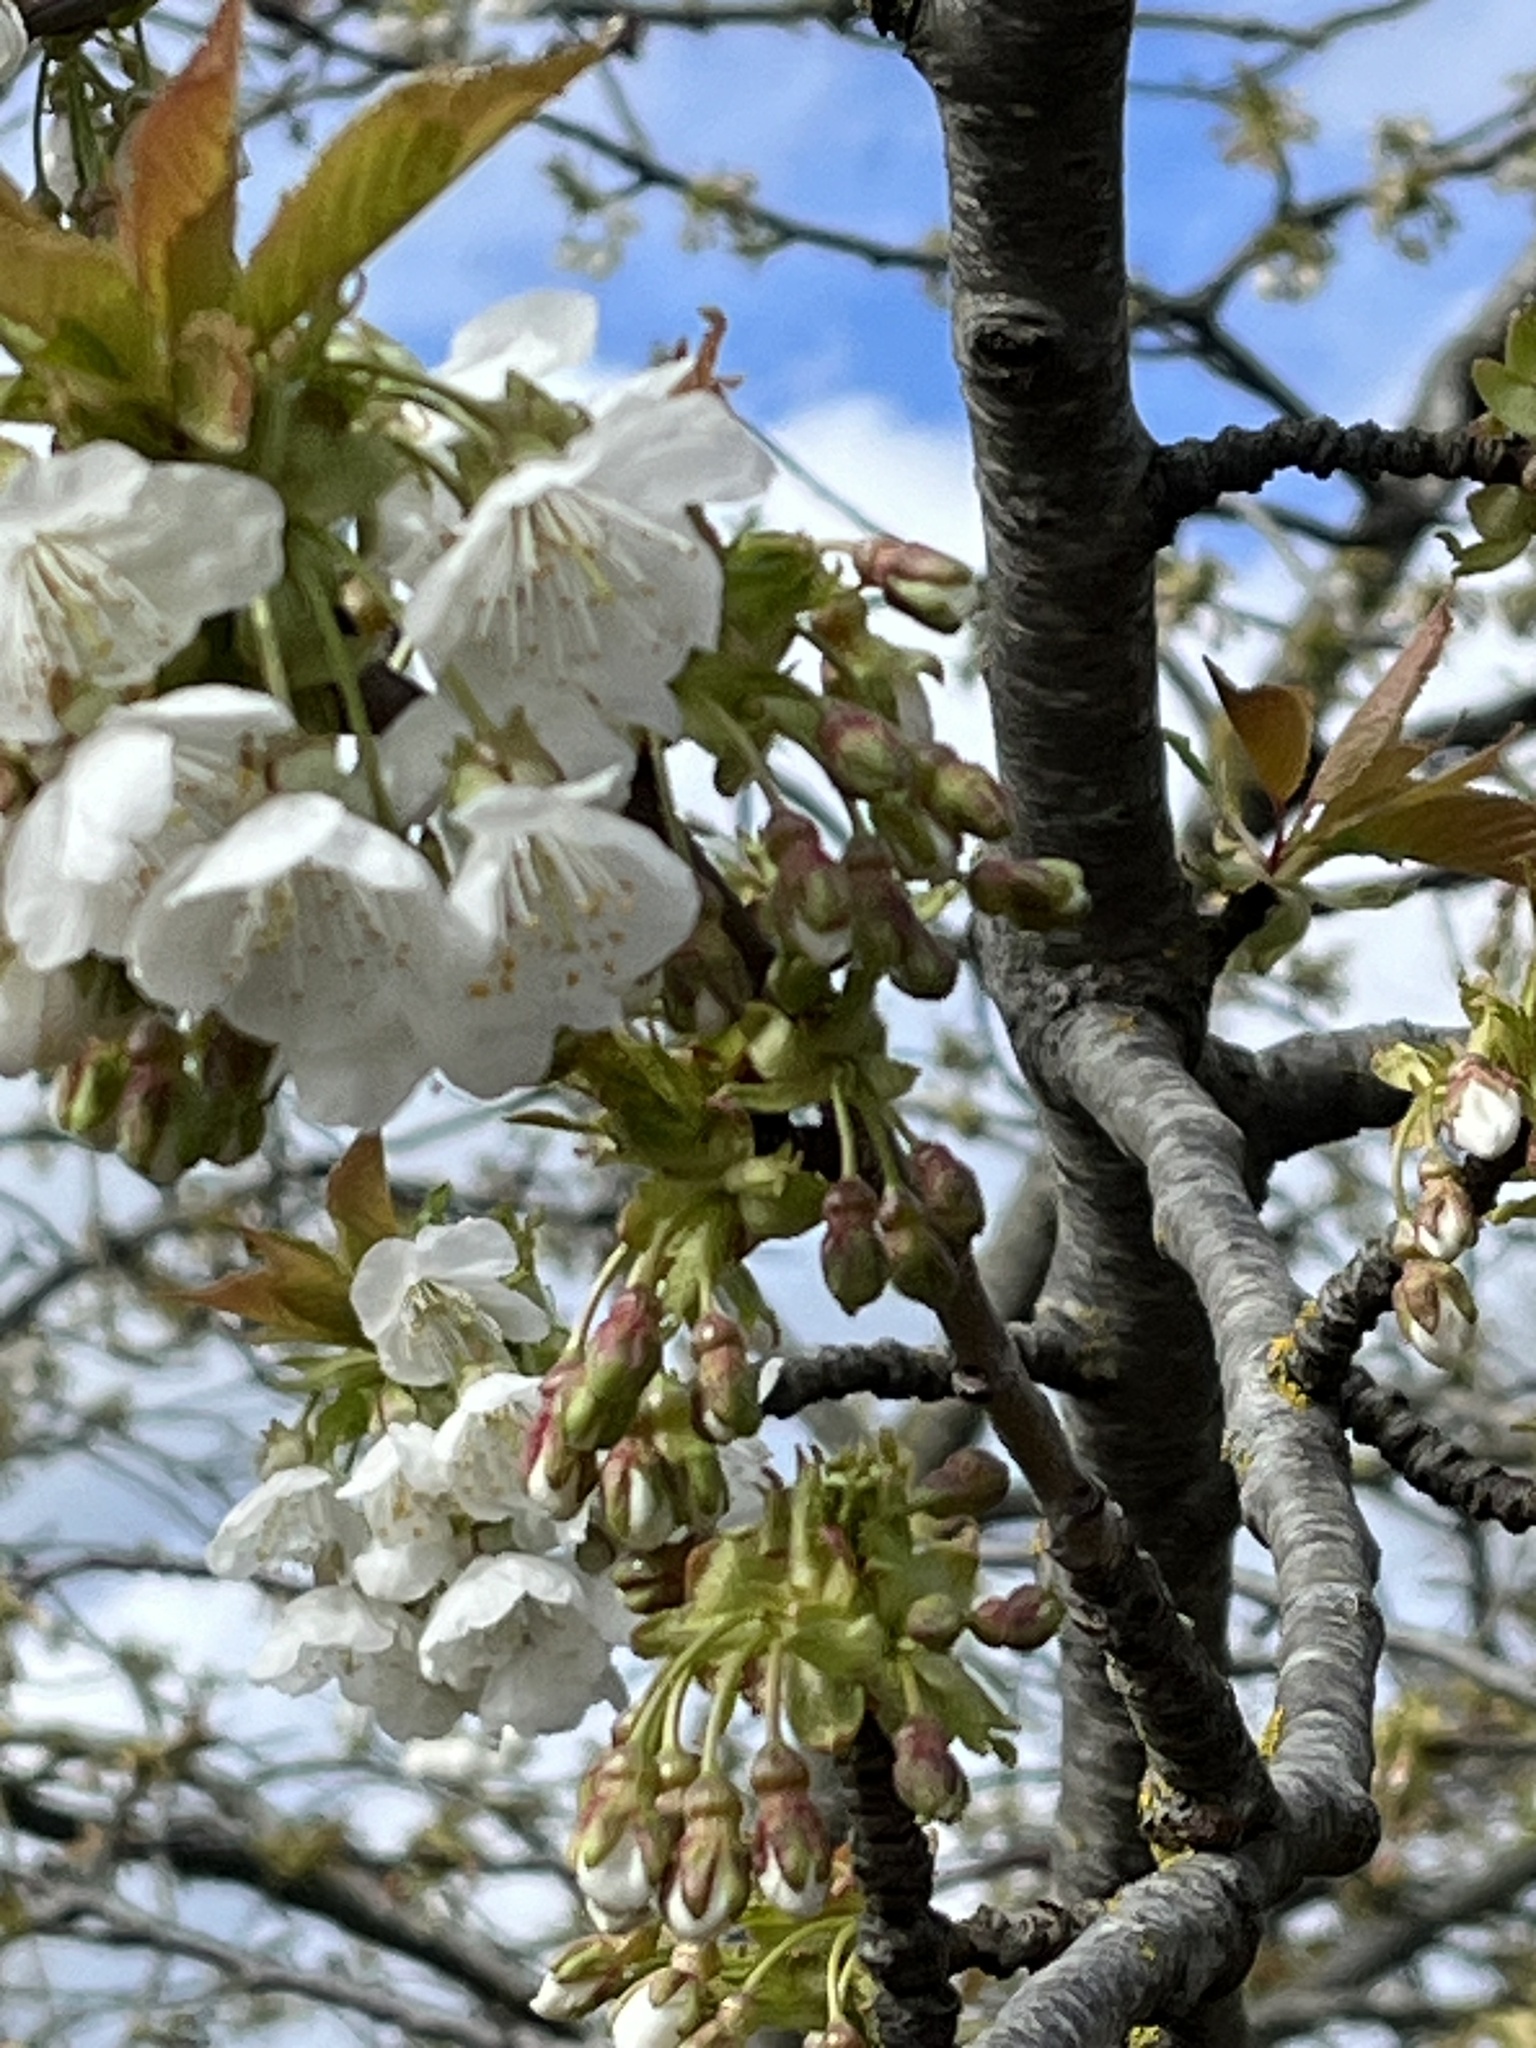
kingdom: Plantae
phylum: Tracheophyta
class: Magnoliopsida
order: Rosales
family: Rosaceae
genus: Prunus
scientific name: Prunus avium
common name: Sweet cherry
